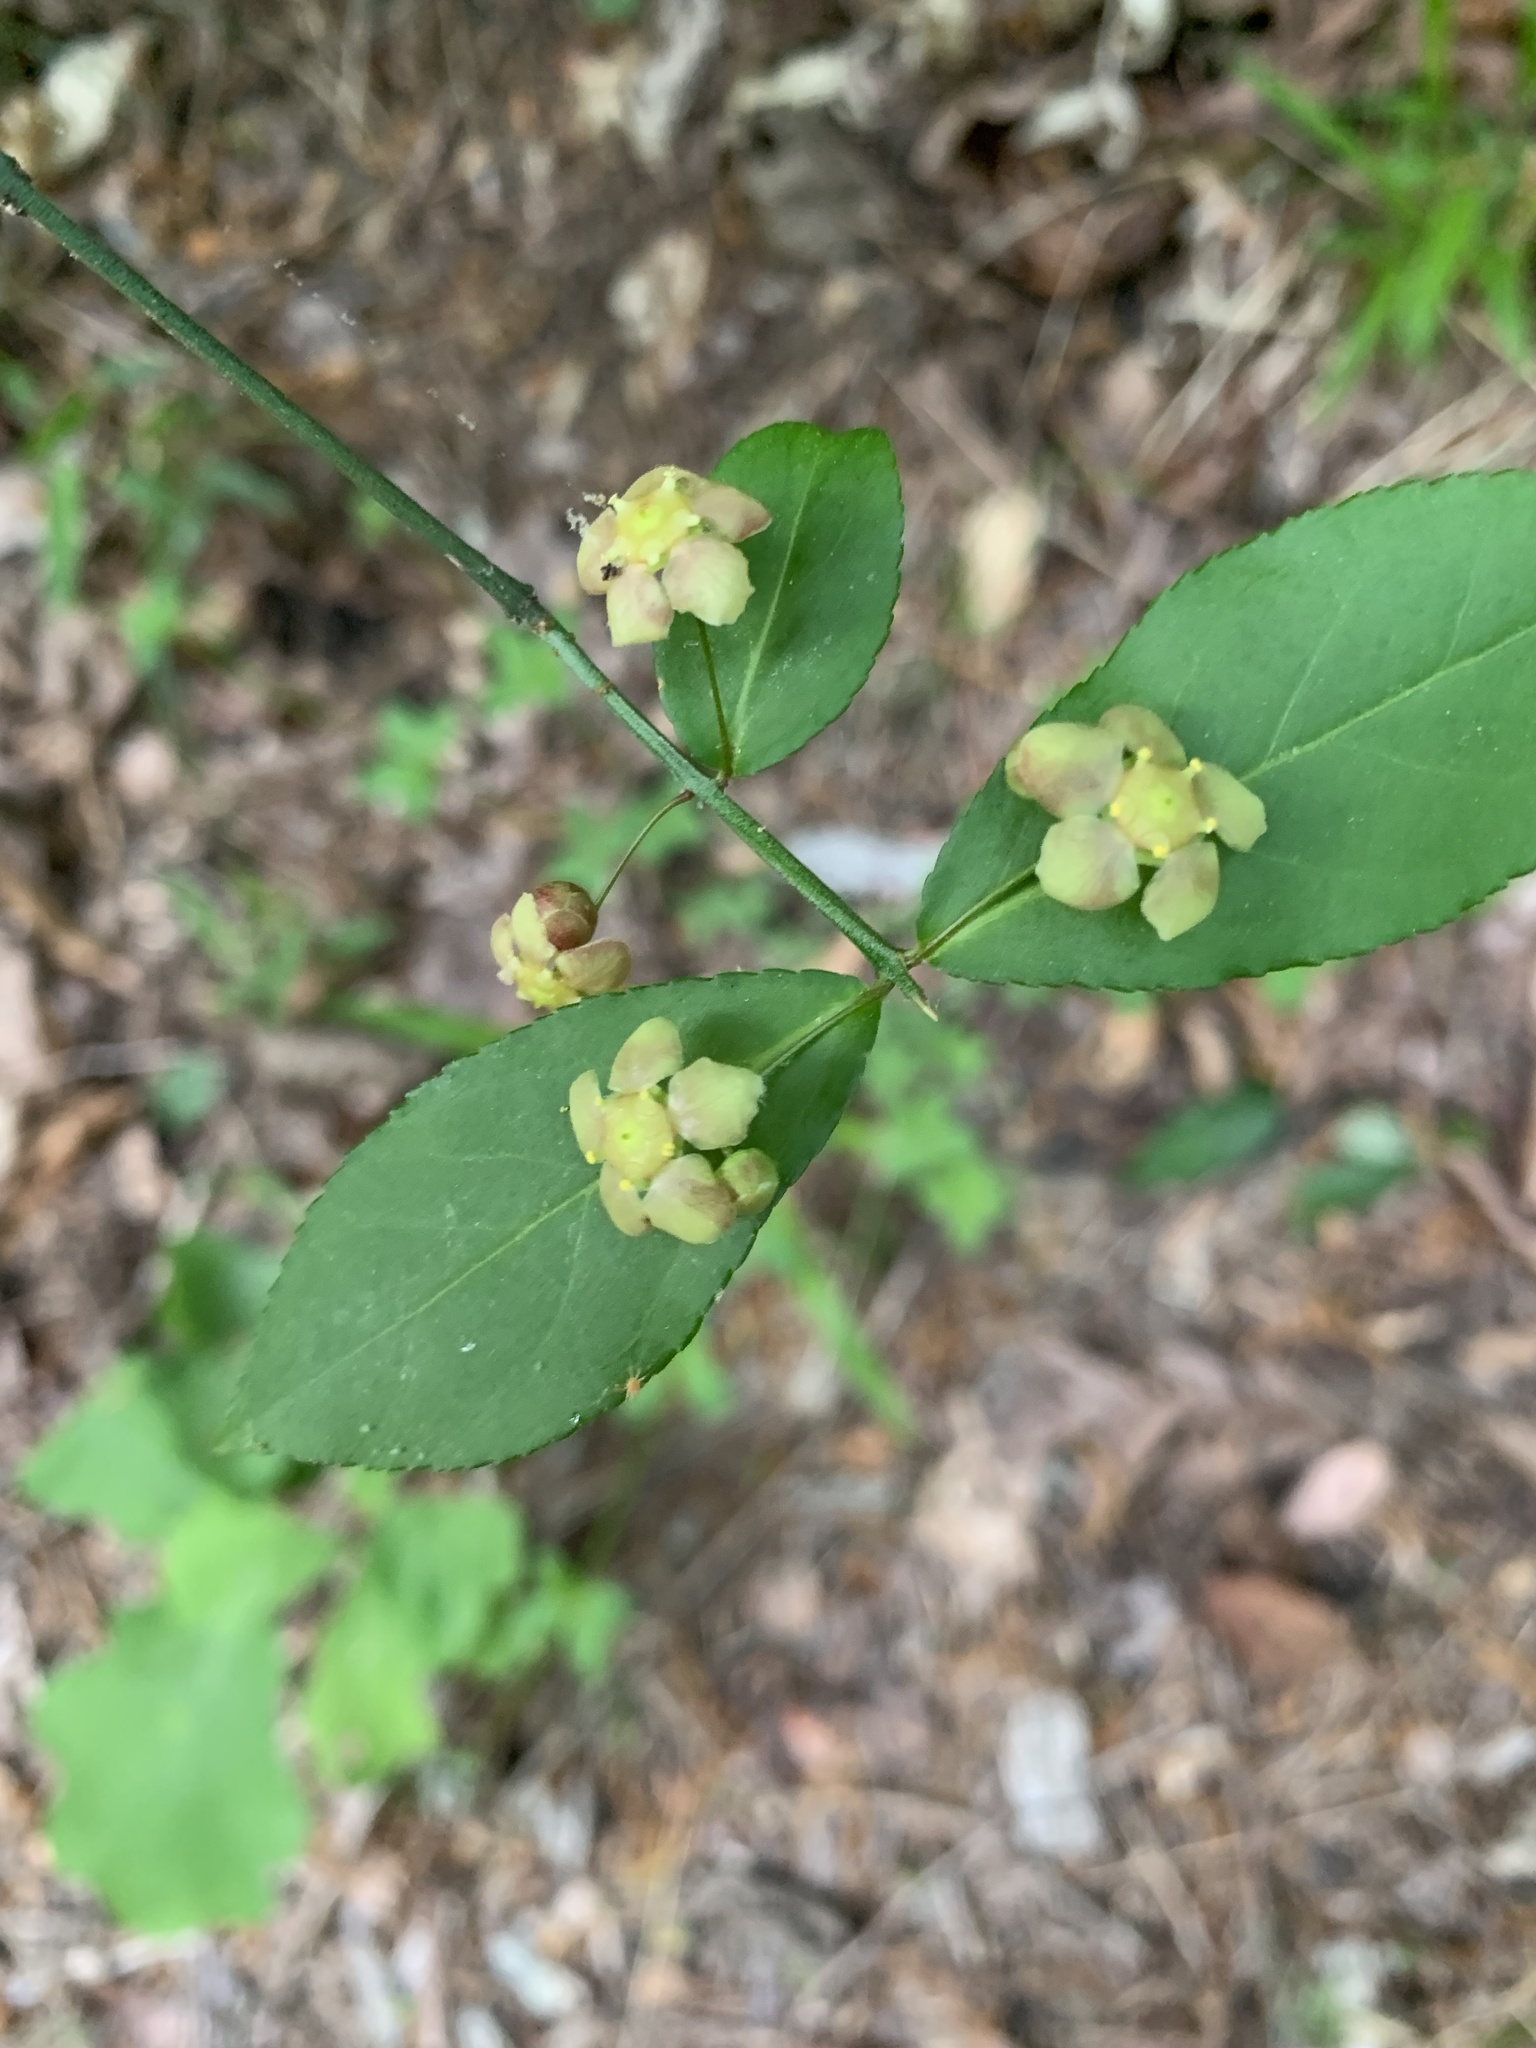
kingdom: Plantae
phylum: Tracheophyta
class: Magnoliopsida
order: Celastrales
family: Celastraceae
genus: Euonymus
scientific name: Euonymus americanus
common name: Bursting-heart
